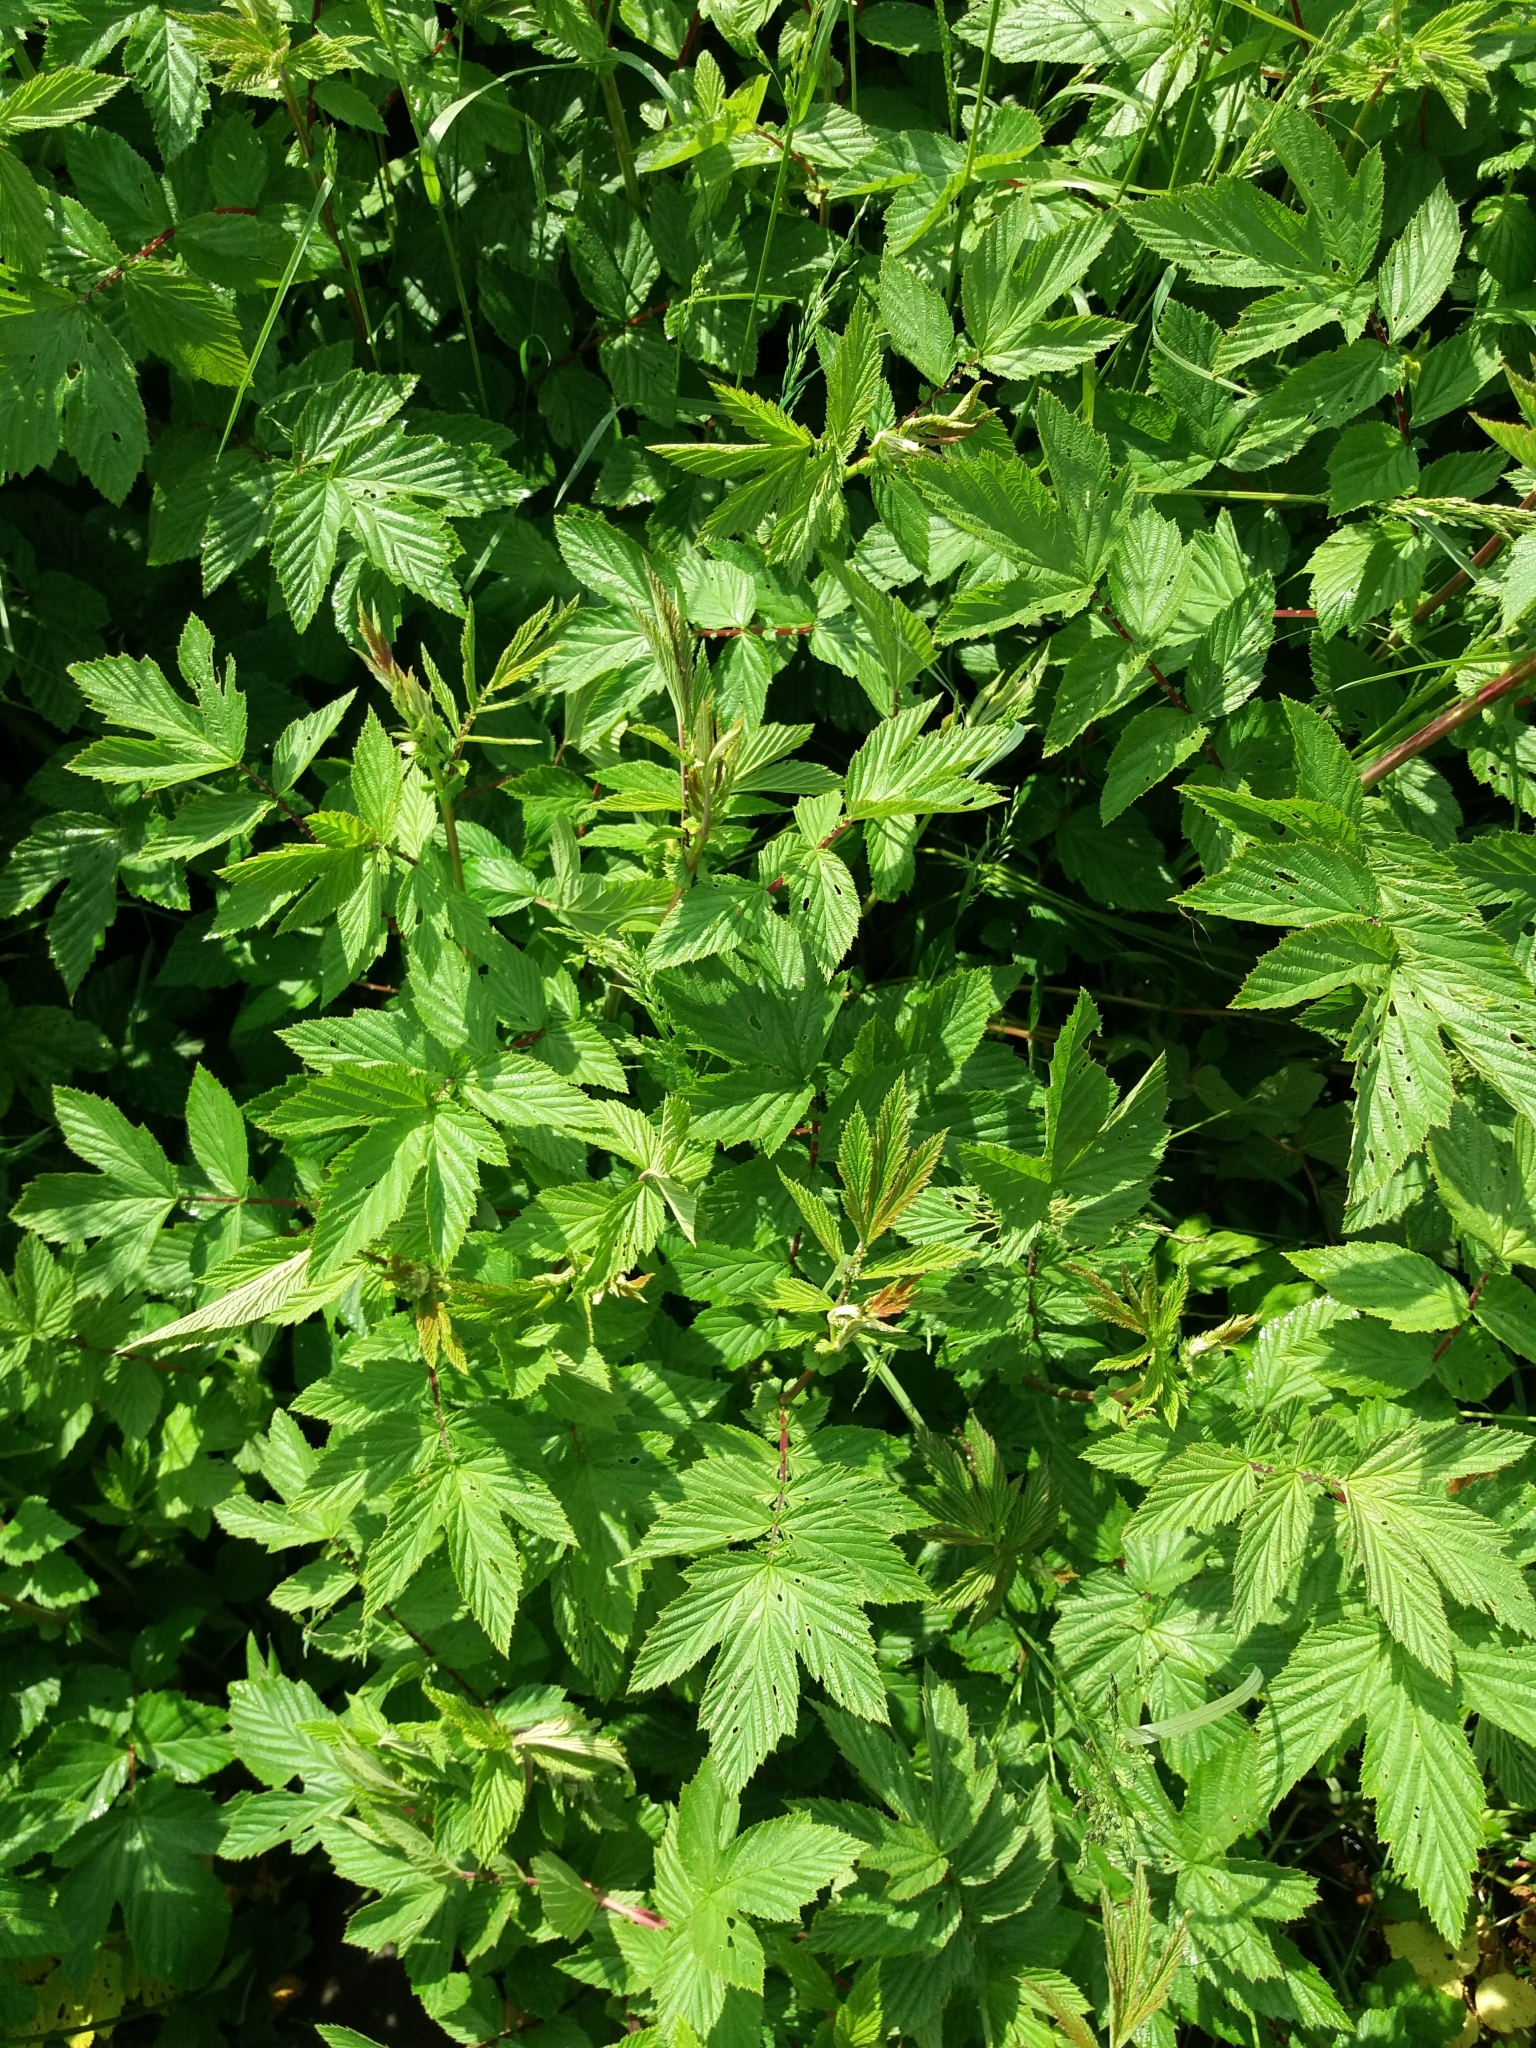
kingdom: Plantae
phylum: Tracheophyta
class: Magnoliopsida
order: Rosales
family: Rosaceae
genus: Filipendula
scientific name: Filipendula ulmaria
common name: Meadowsweet
